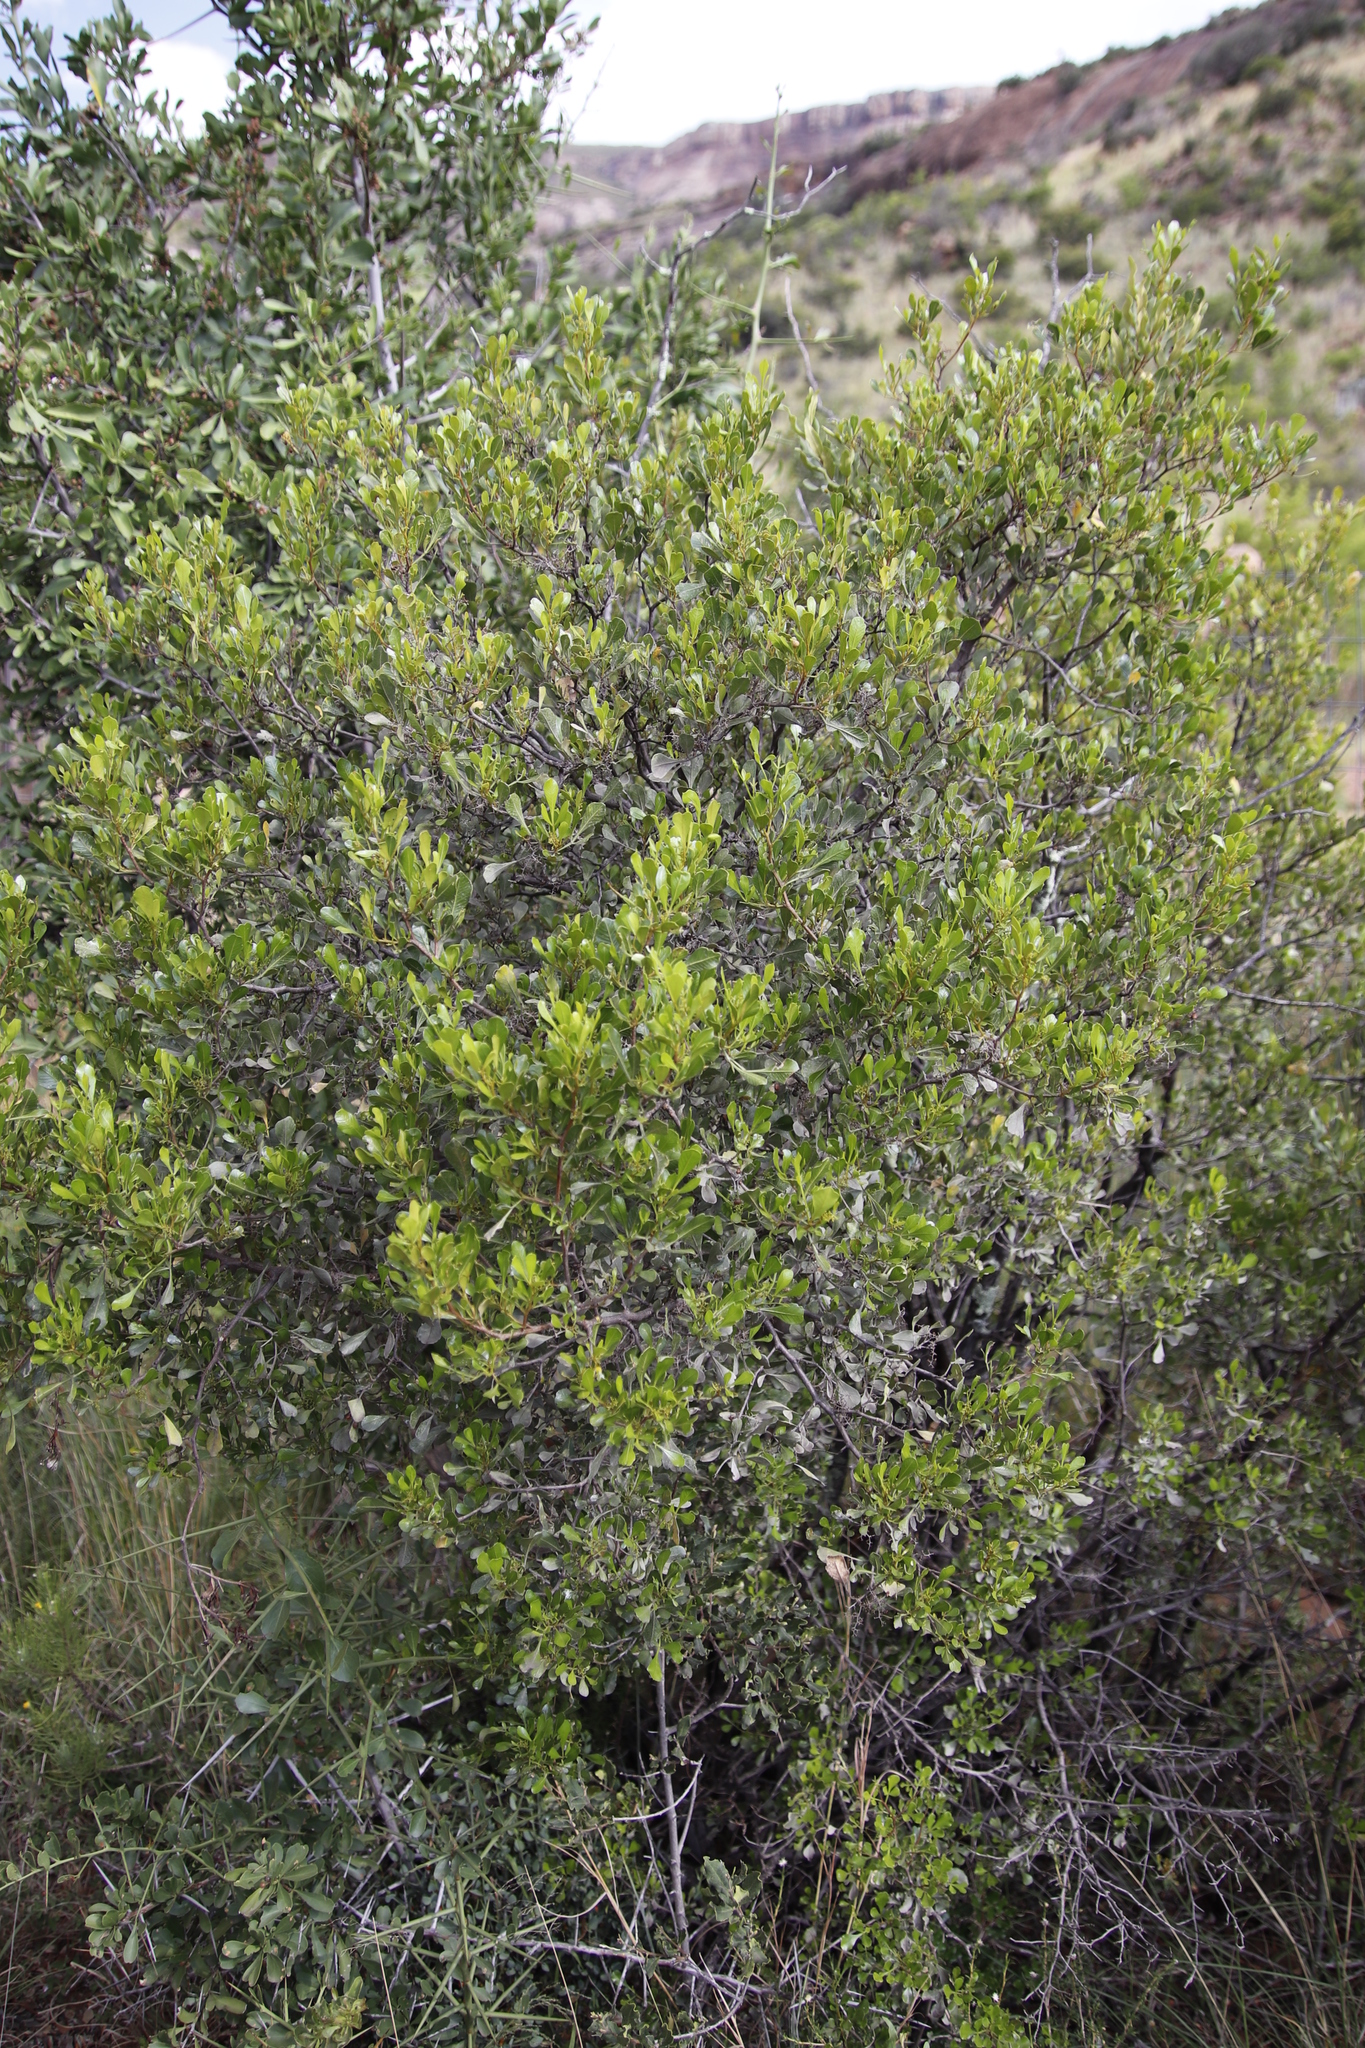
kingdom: Plantae
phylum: Tracheophyta
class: Magnoliopsida
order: Sapindales
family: Anacardiaceae
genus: Searsia
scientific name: Searsia pallens
